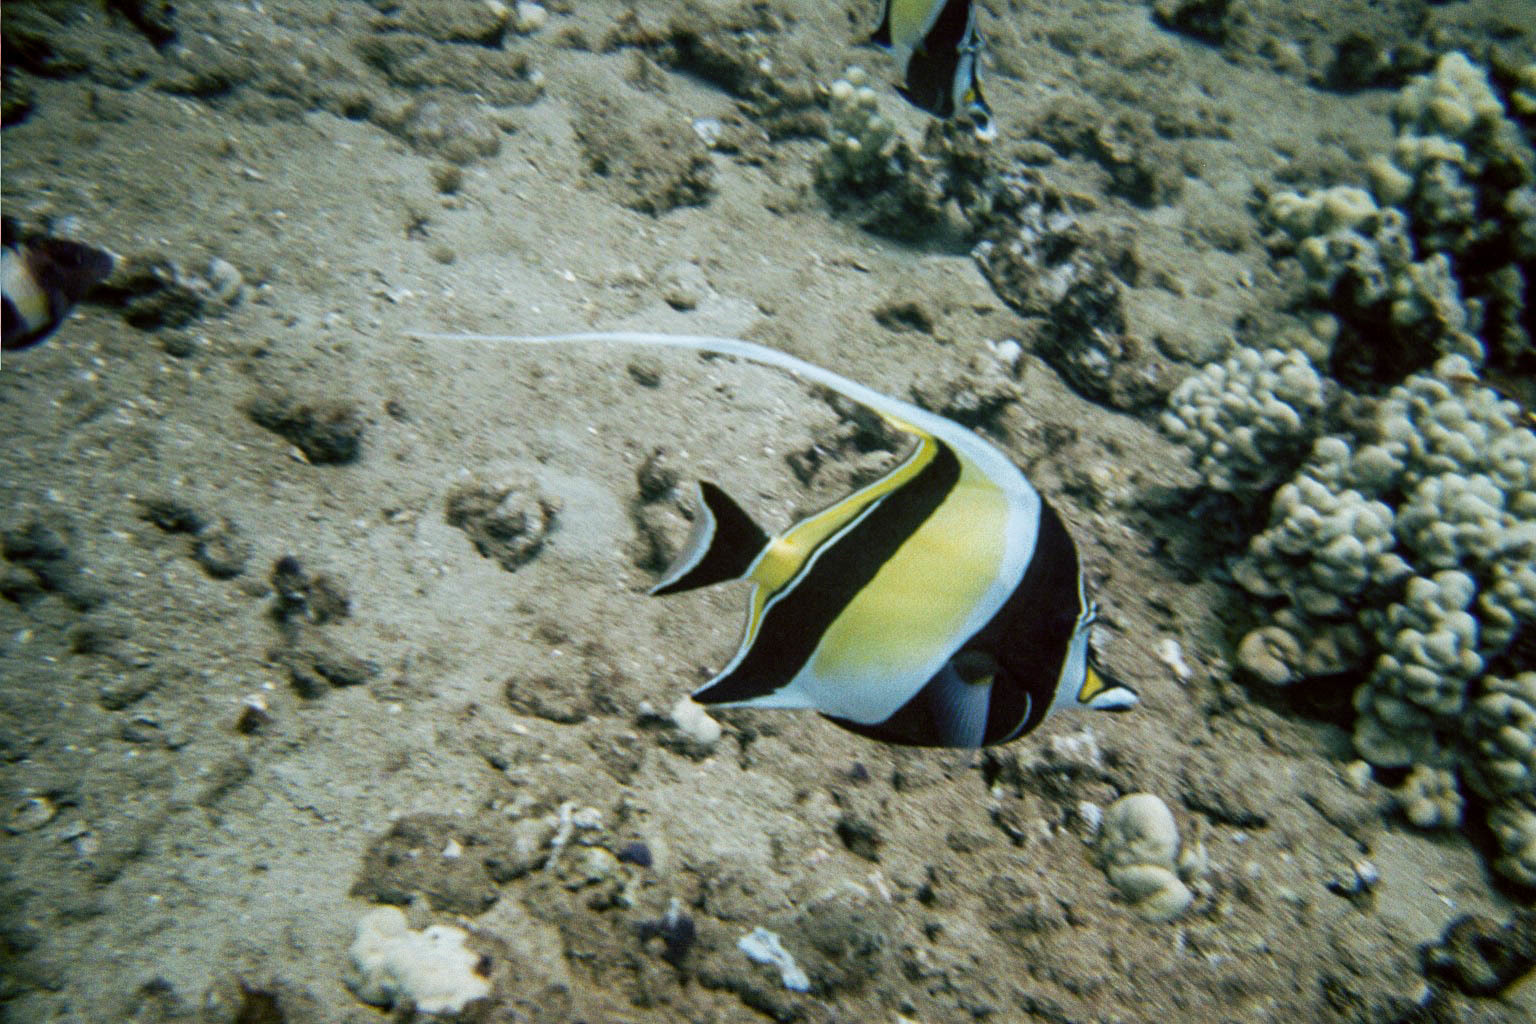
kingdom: Animalia
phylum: Chordata
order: Perciformes
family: Zanclidae
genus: Zanclus
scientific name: Zanclus cornutus
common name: Moorish idol
